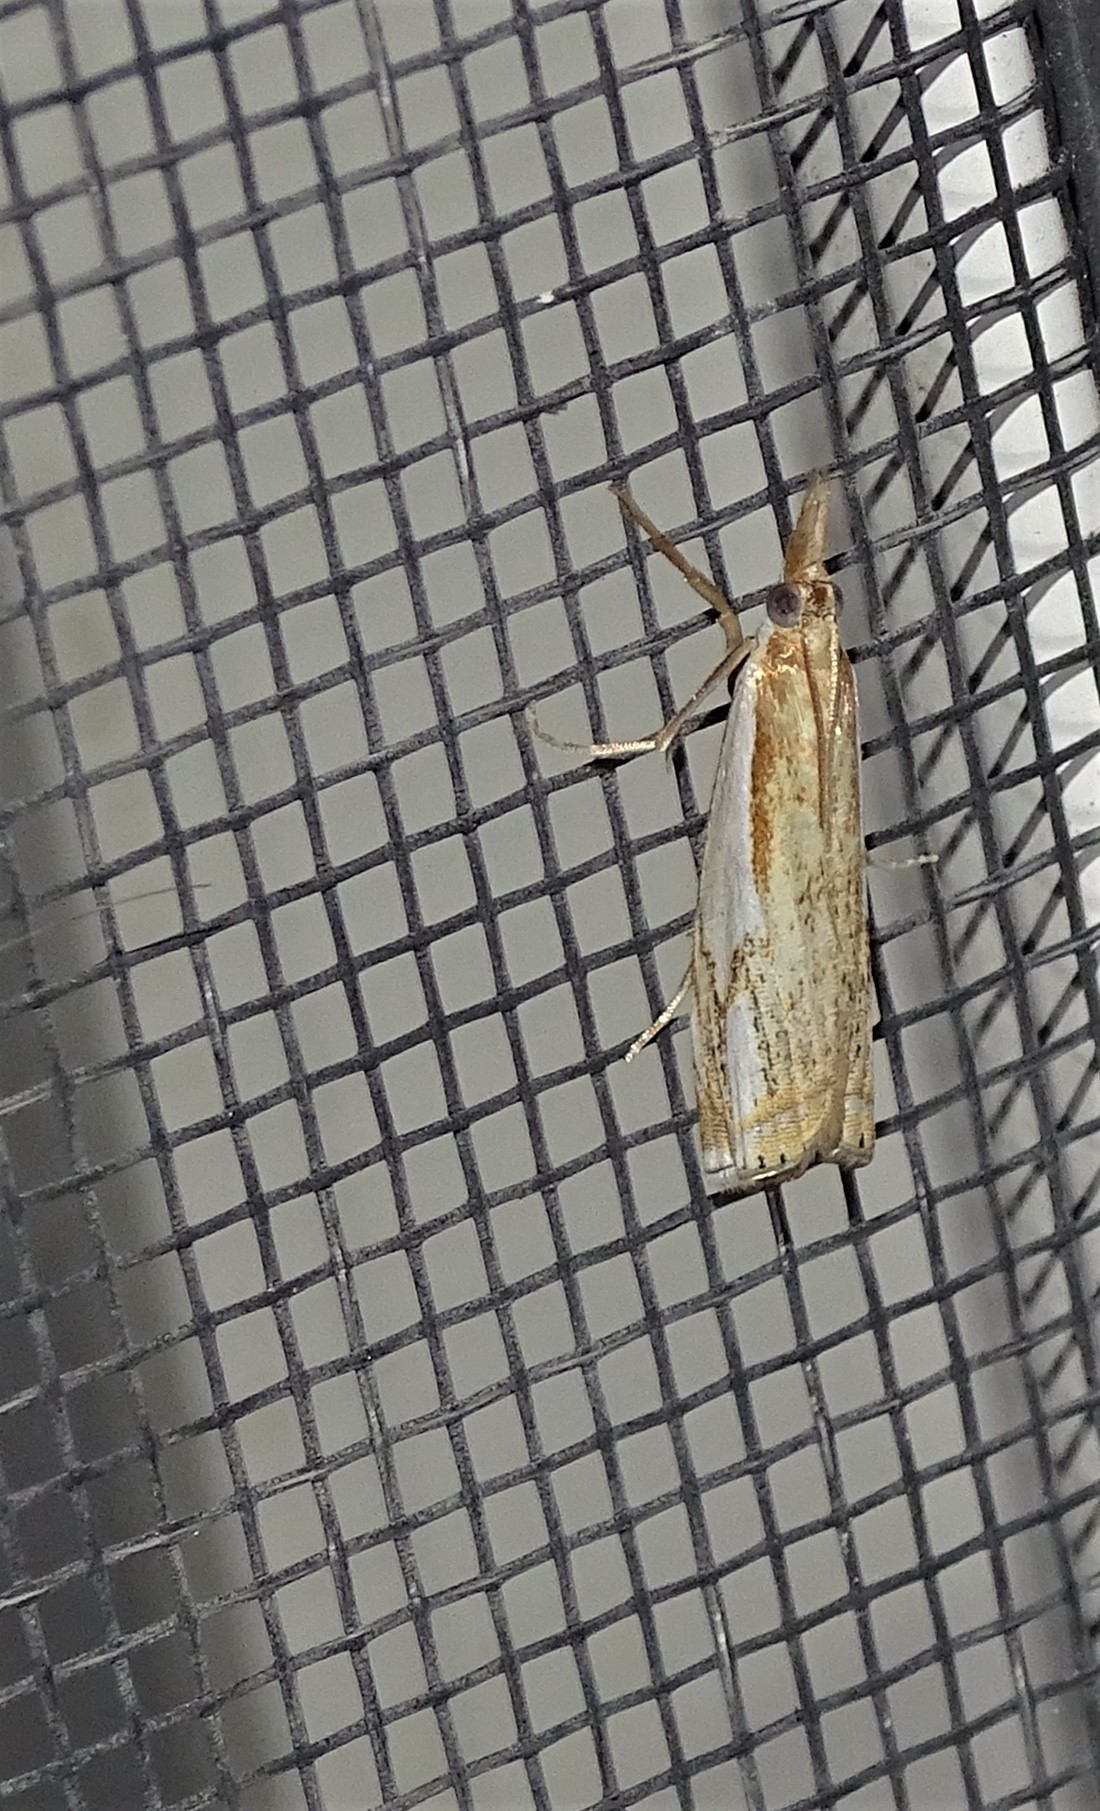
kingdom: Animalia
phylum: Arthropoda
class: Insecta
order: Lepidoptera
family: Crambidae
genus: Crambus
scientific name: Crambus agitatellus
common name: Double-banded grass-veneer
